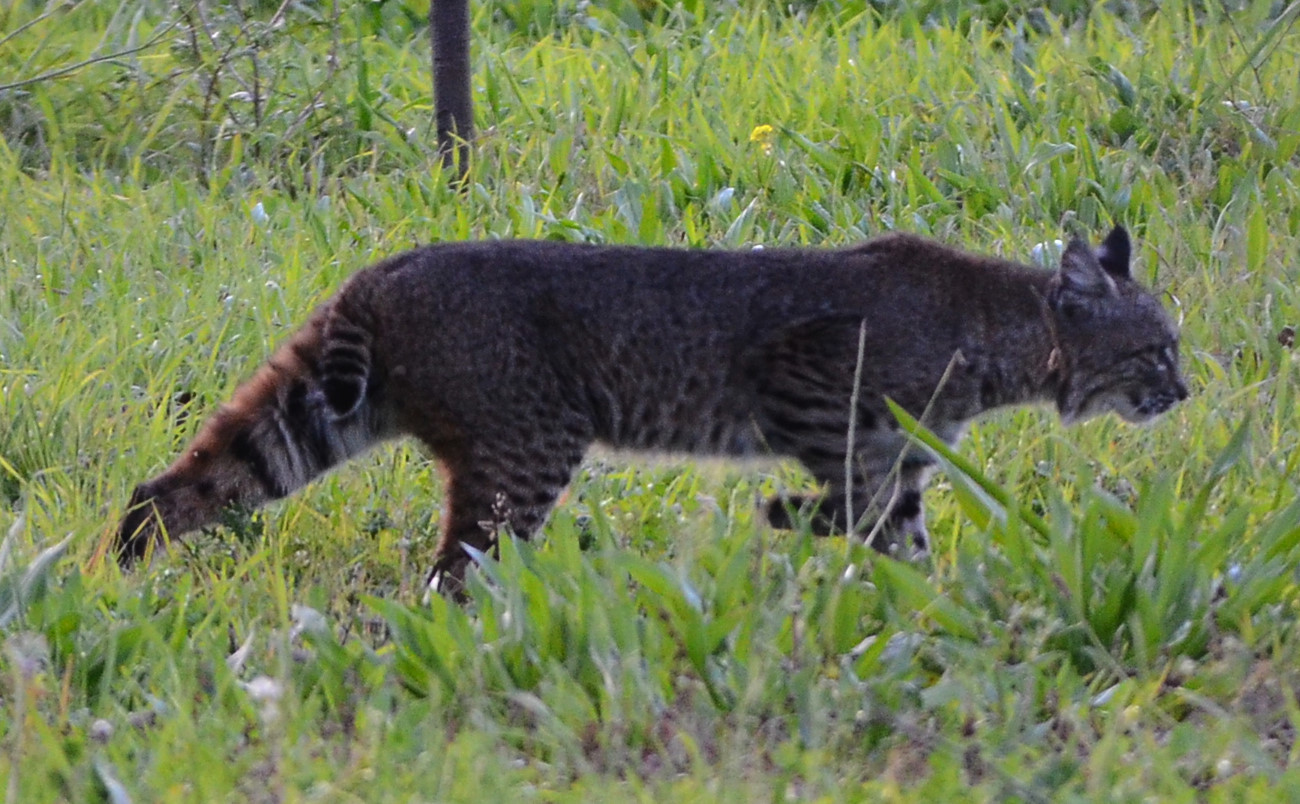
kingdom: Animalia
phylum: Chordata
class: Mammalia
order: Carnivora
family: Felidae
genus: Lynx
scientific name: Lynx rufus
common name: Bobcat
